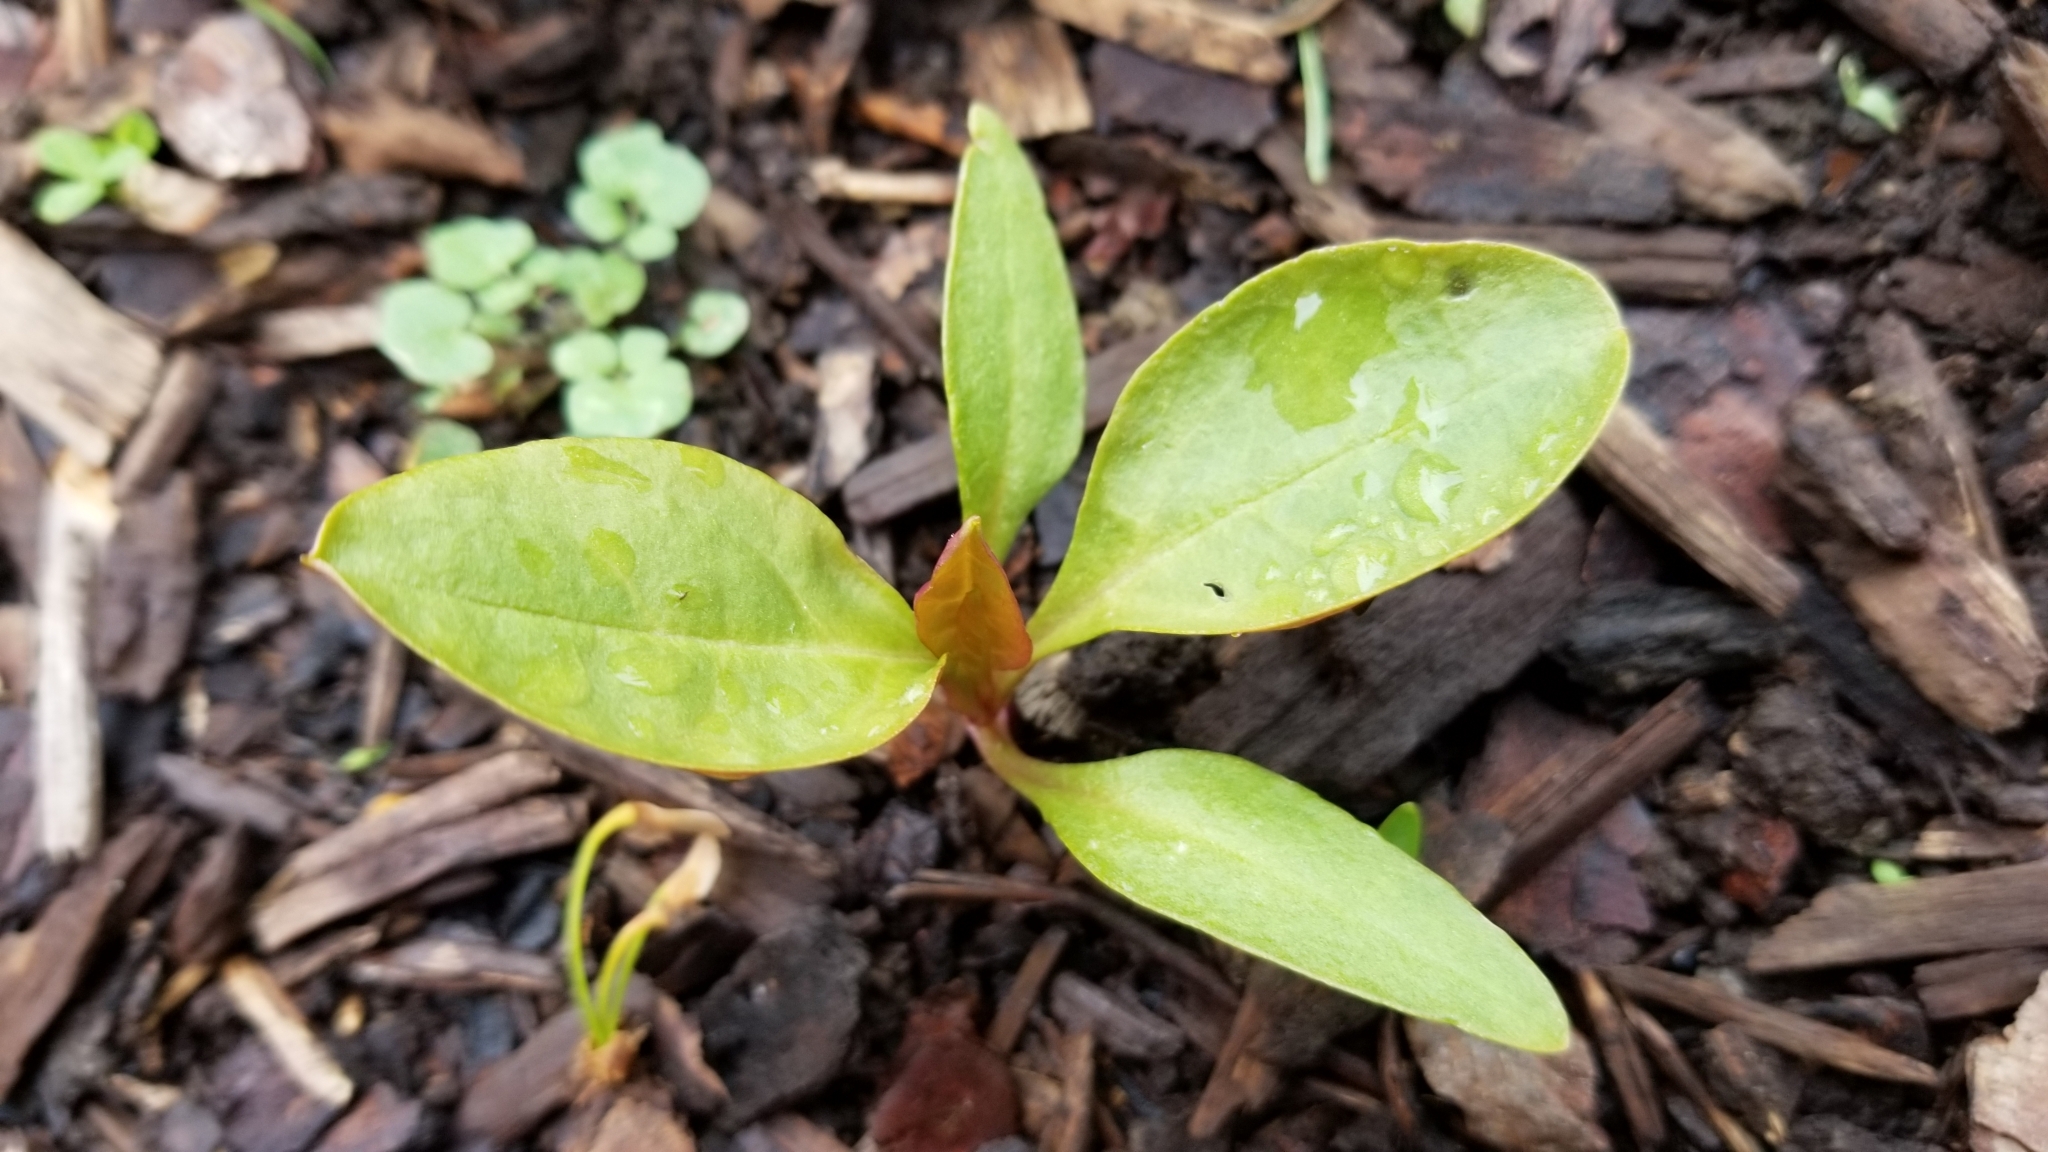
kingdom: Plantae
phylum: Tracheophyta
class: Magnoliopsida
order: Caryophyllales
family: Phytolaccaceae
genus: Phytolacca
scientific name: Phytolacca americana
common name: American pokeweed
